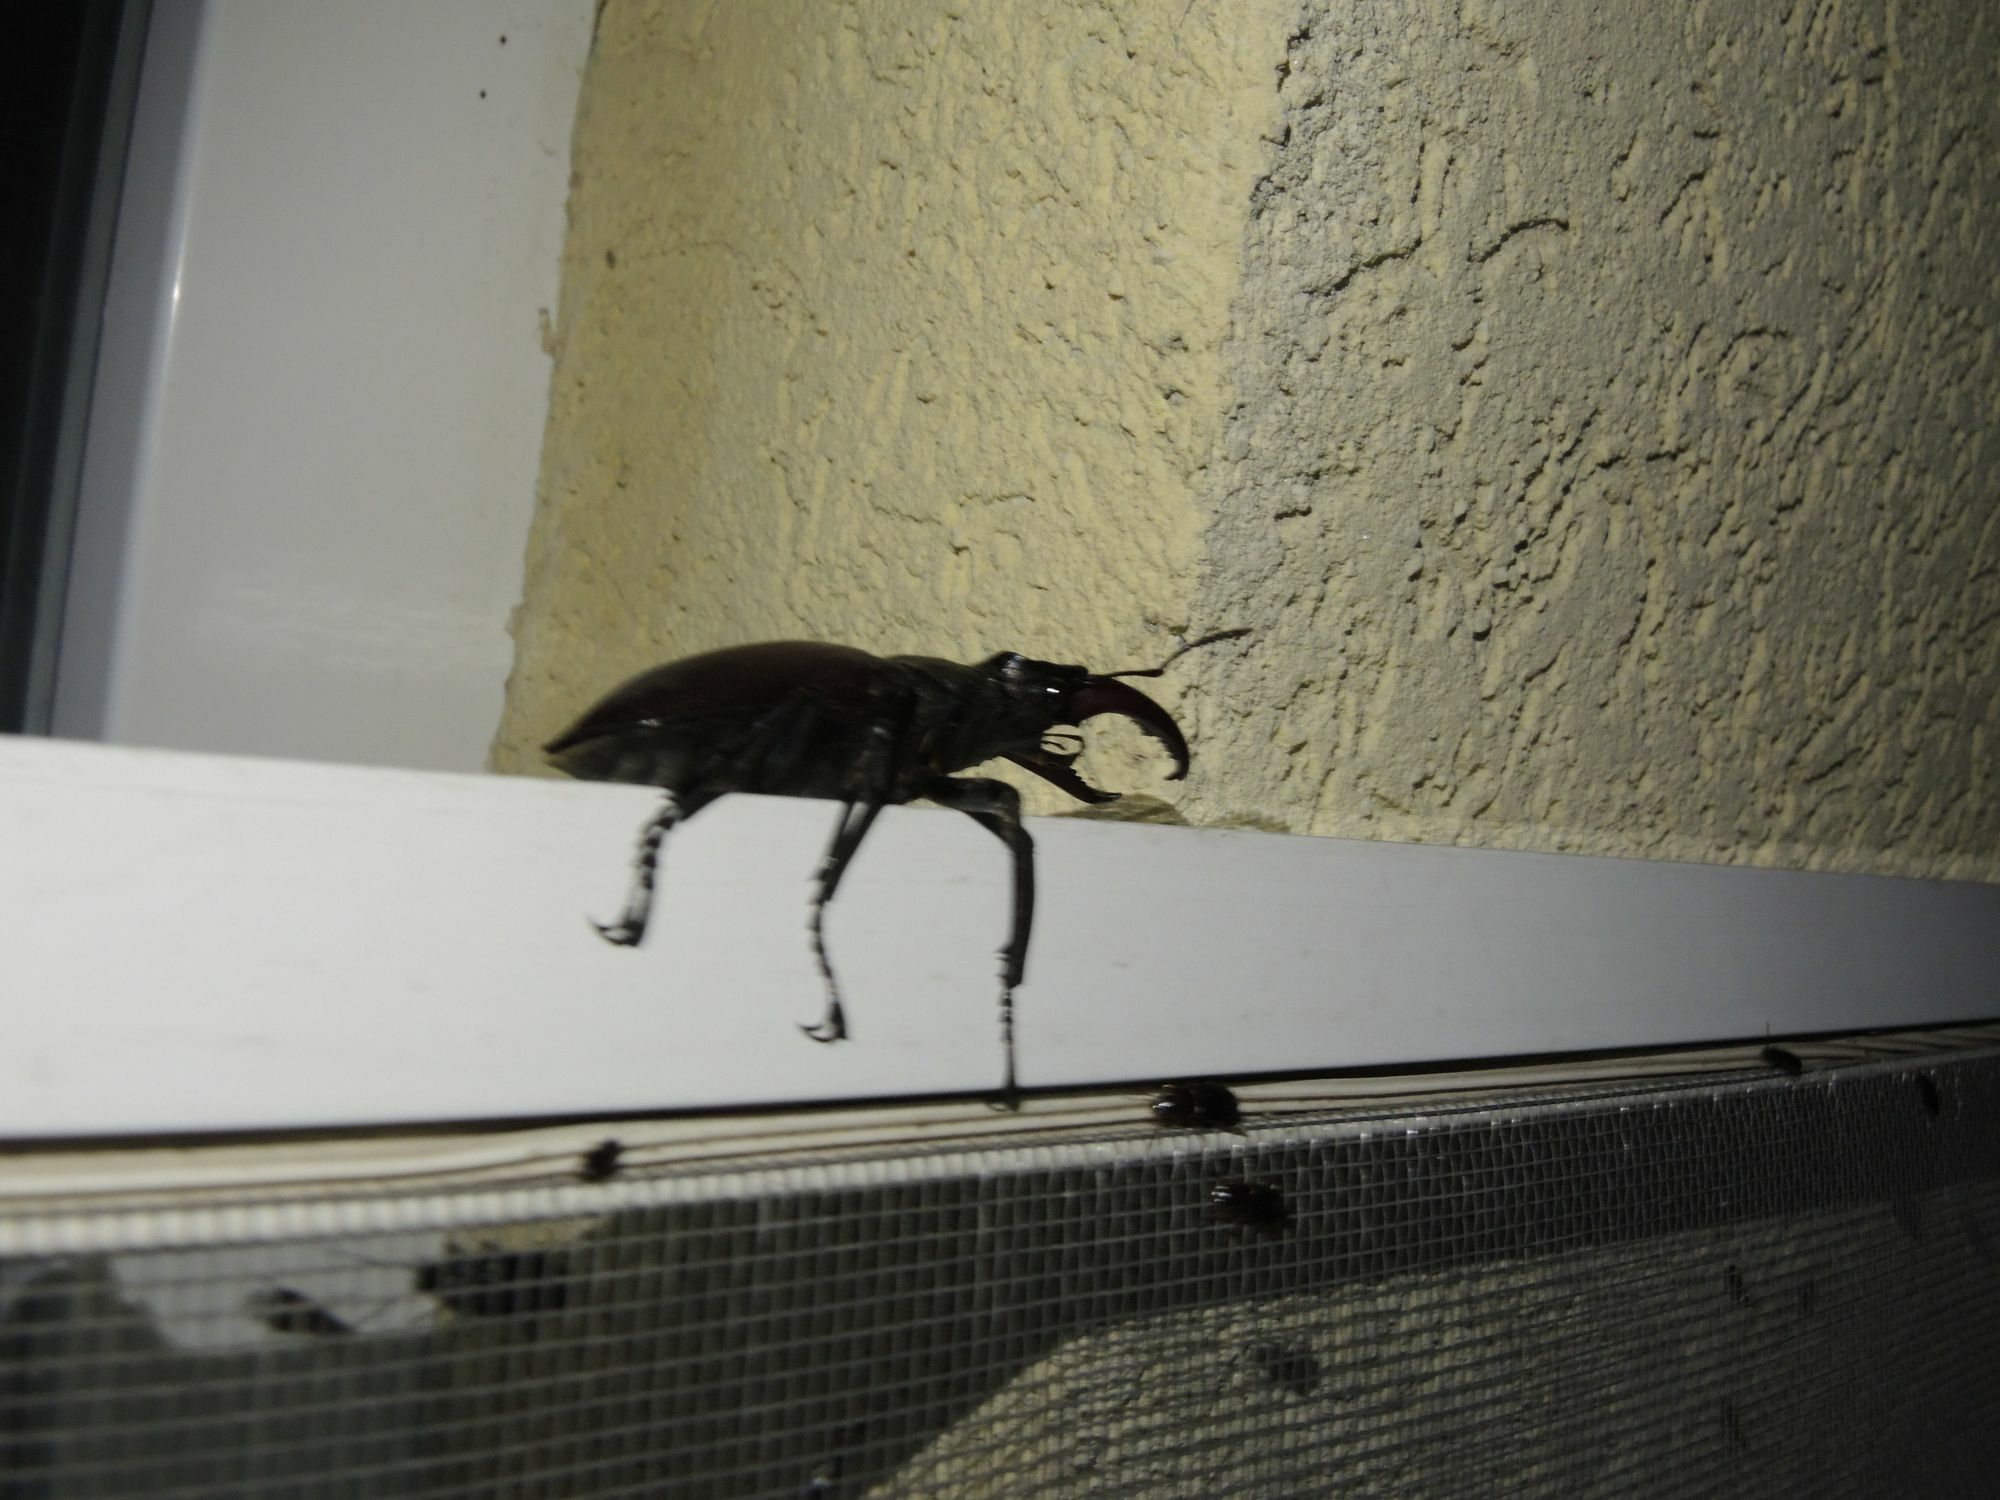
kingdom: Animalia
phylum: Arthropoda
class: Insecta
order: Coleoptera
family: Lucanidae
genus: Lucanus
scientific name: Lucanus cervus
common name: Stag beetle
